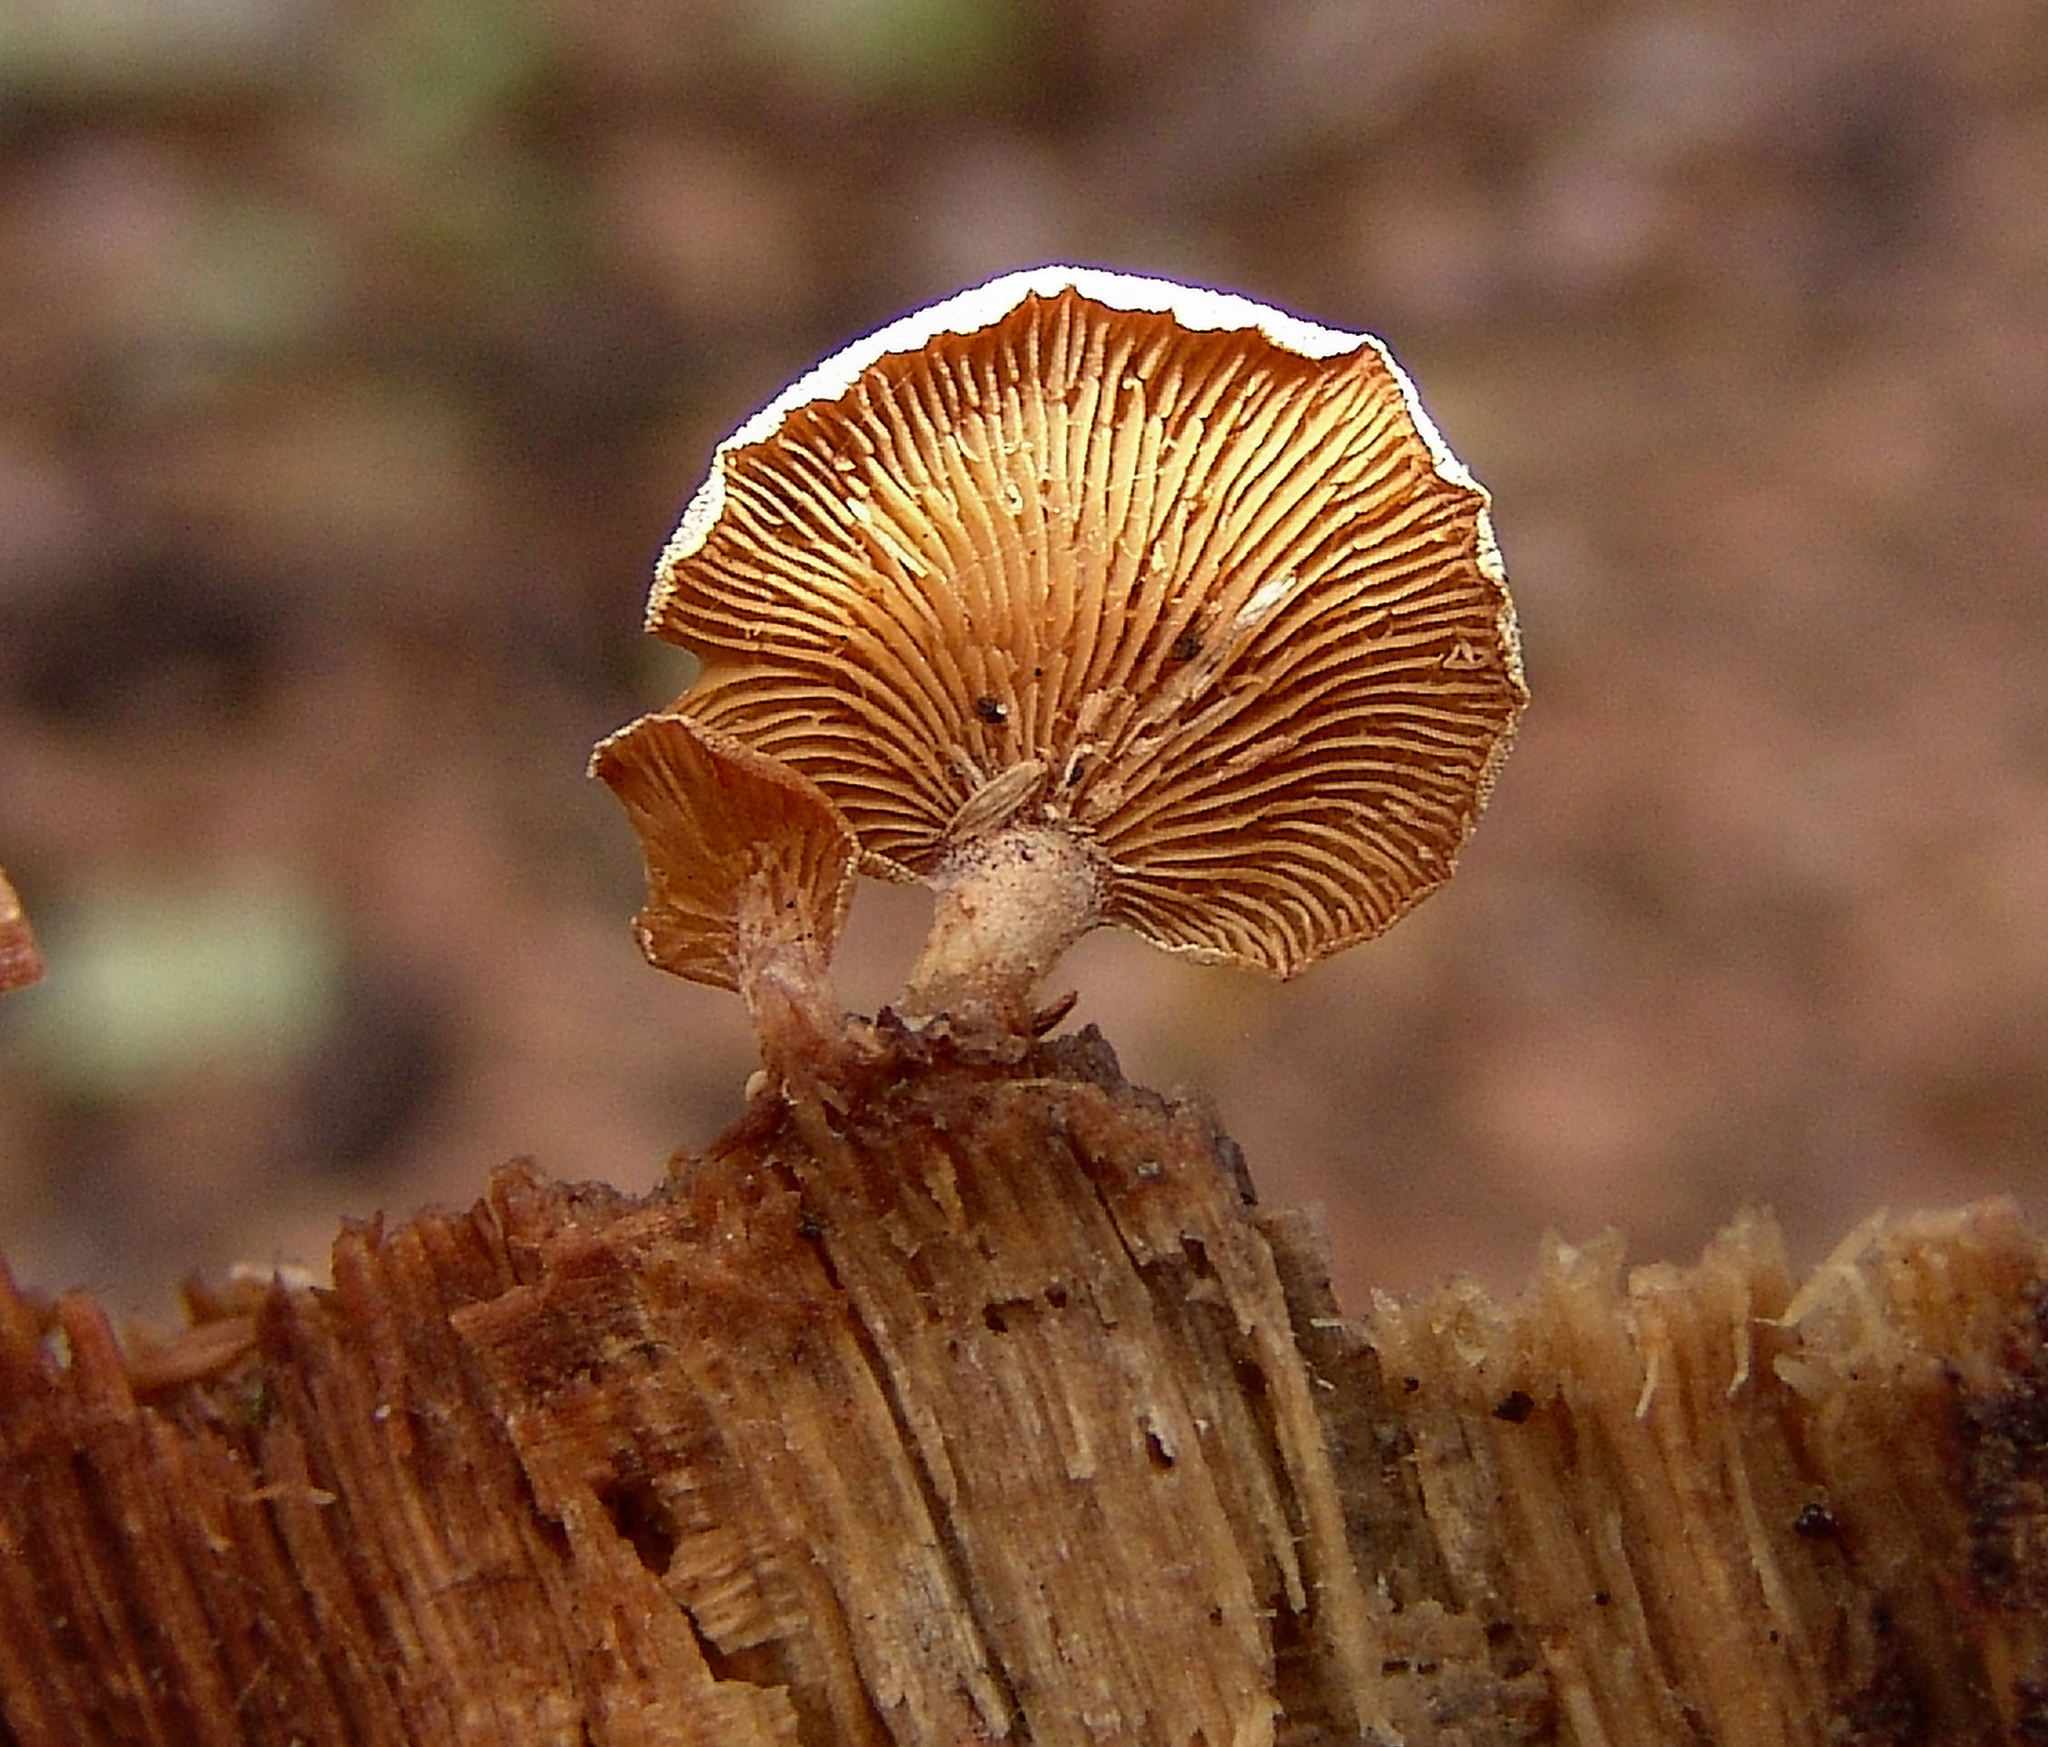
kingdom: Fungi
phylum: Basidiomycota
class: Agaricomycetes
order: Agaricales
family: Mycenaceae
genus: Panellus
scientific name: Panellus stipticus
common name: Bitter oysterling
